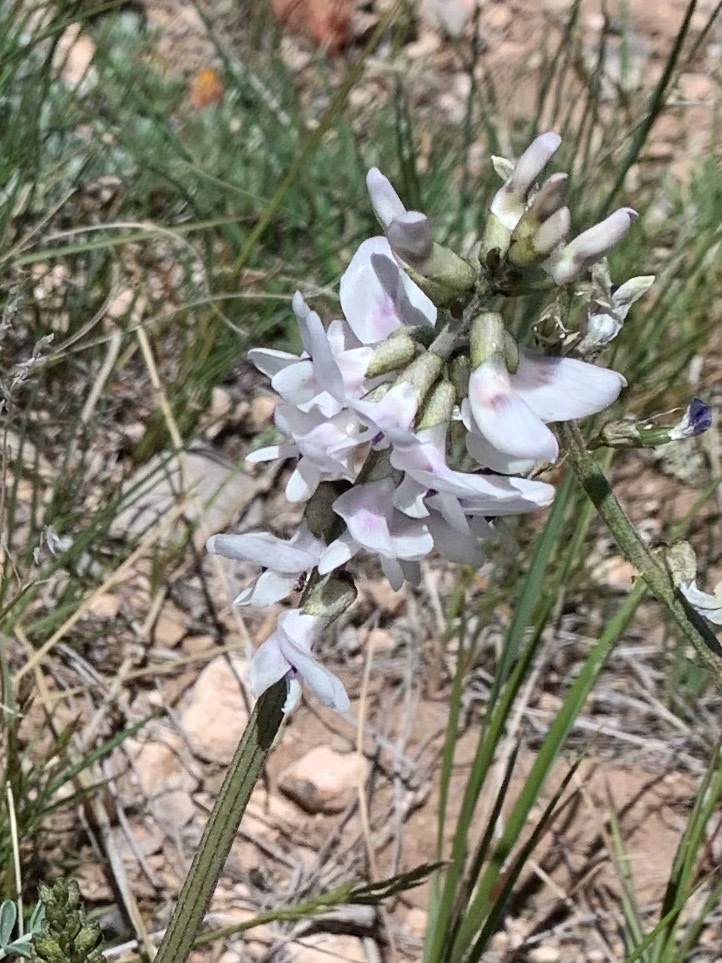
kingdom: Plantae
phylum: Tracheophyta
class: Magnoliopsida
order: Fabales
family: Fabaceae
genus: Astragalus
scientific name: Astragalus terminalis
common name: Railhead milkvetch
